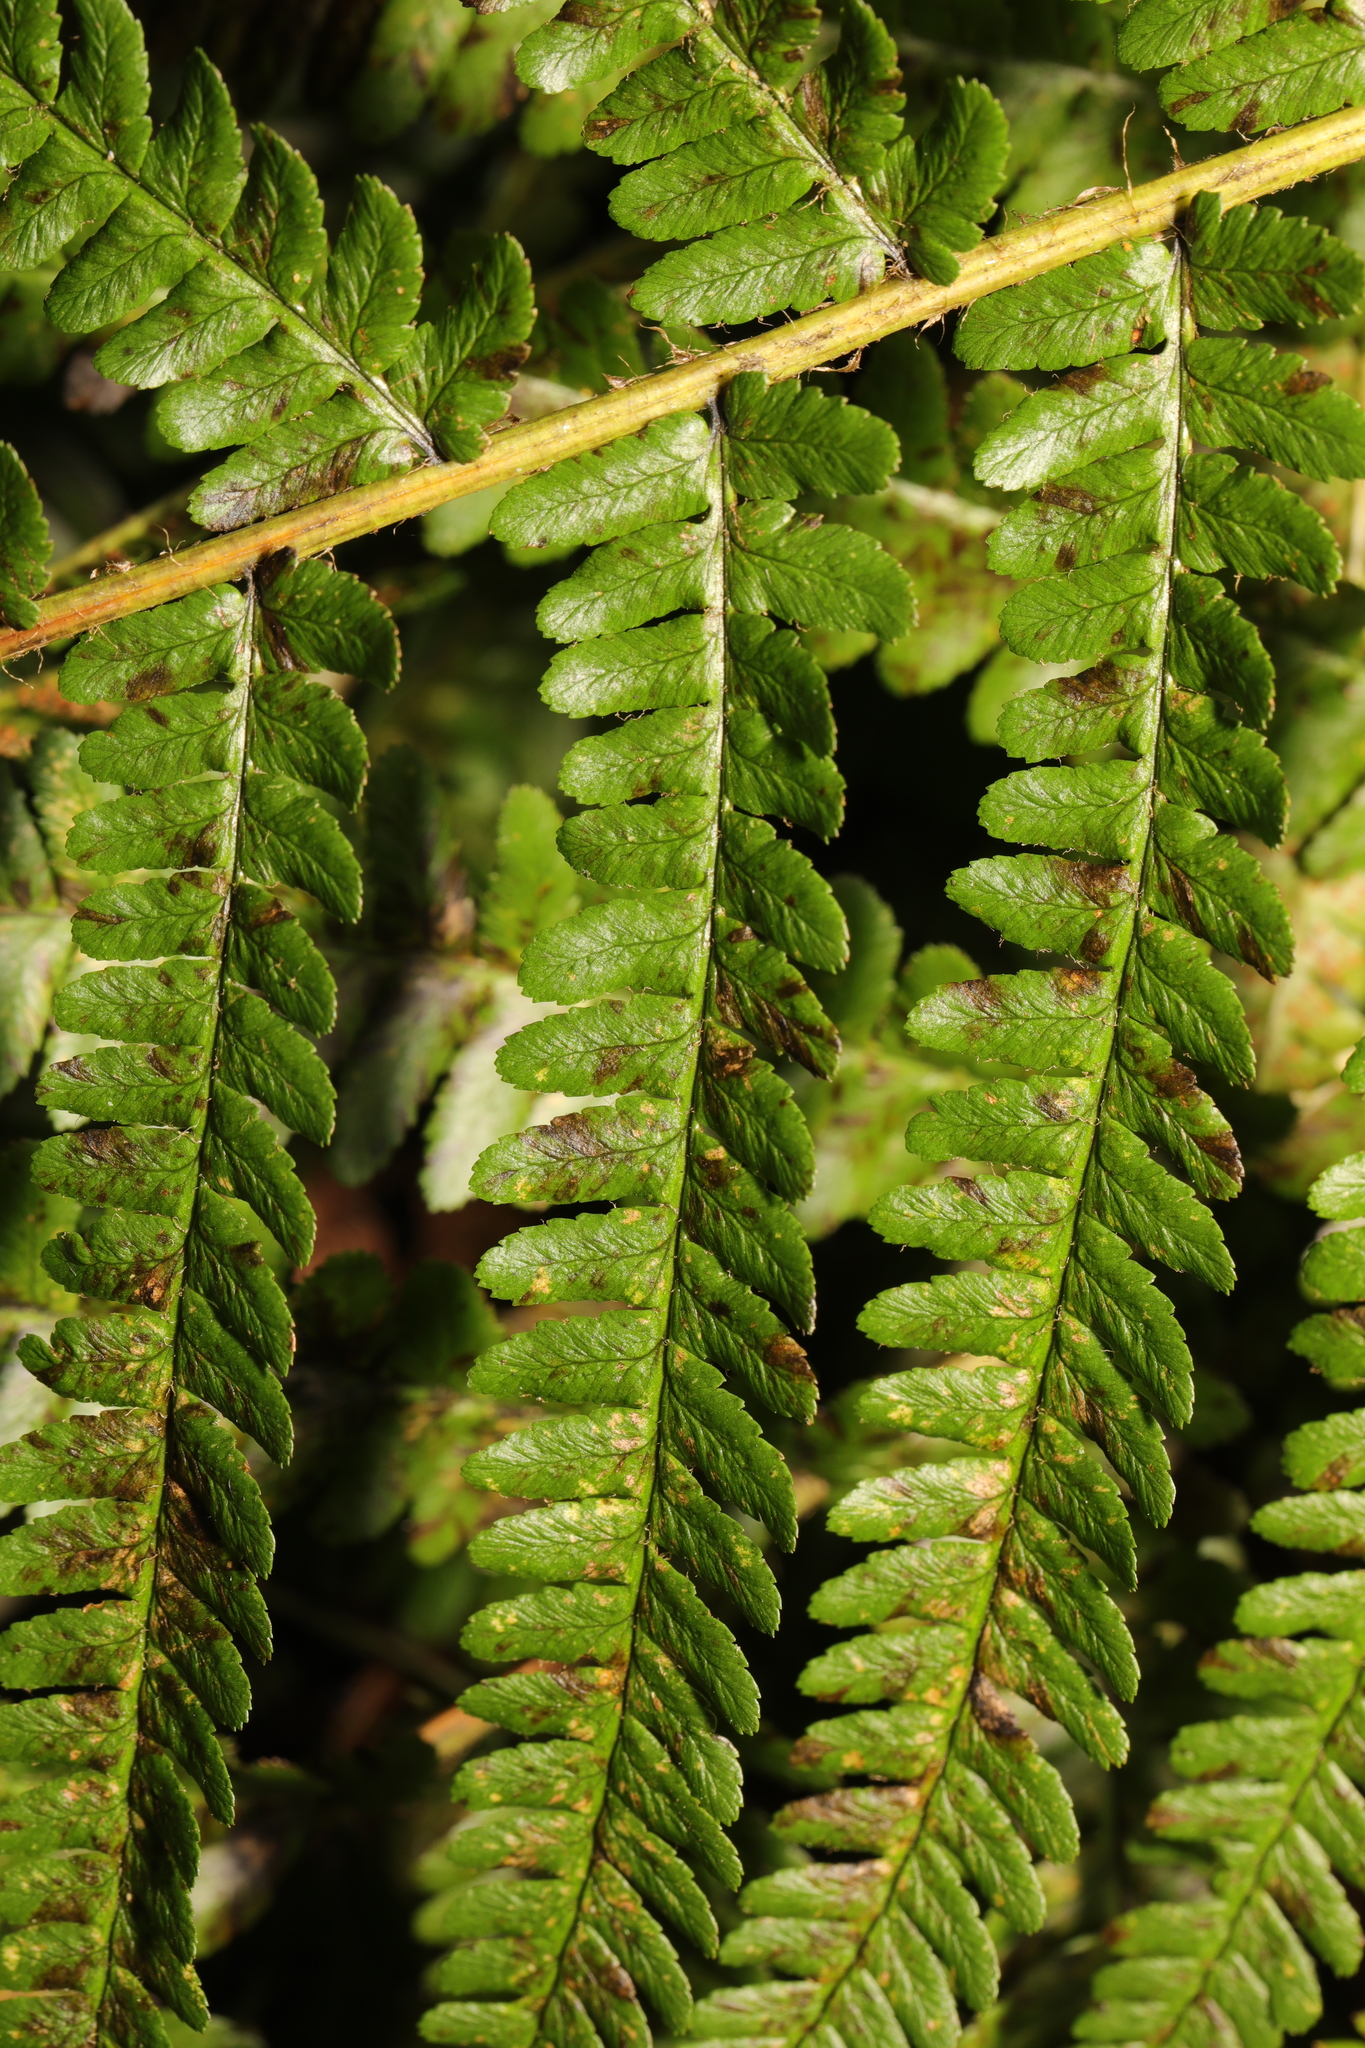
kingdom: Plantae
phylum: Tracheophyta
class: Polypodiopsida
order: Polypodiales
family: Dryopteridaceae
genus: Dryopteris
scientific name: Dryopteris filix-mas
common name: Male fern
